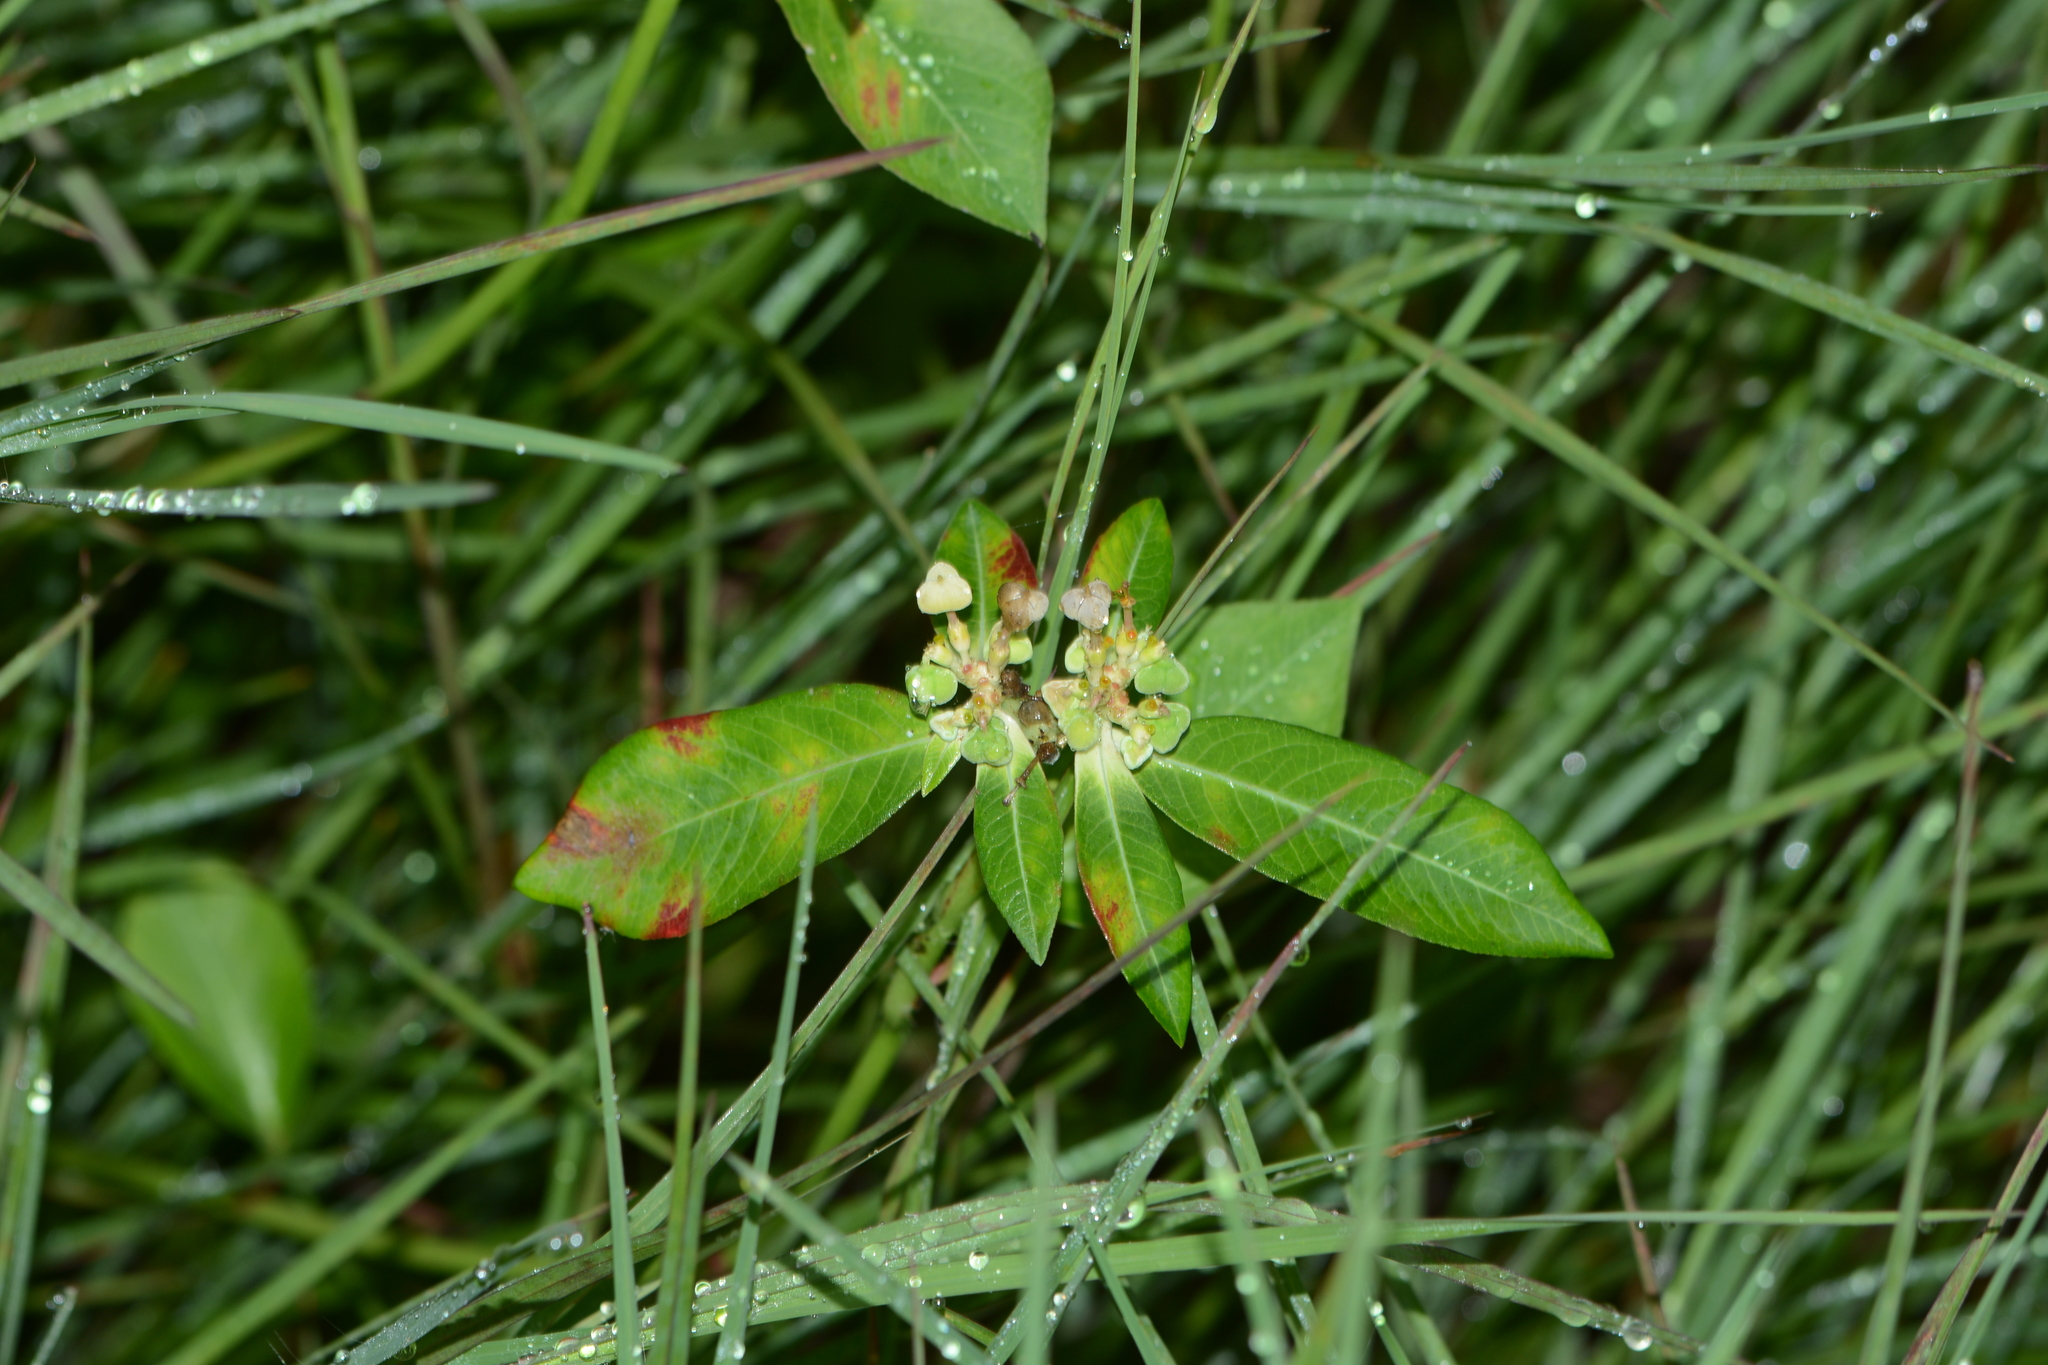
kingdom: Plantae
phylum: Tracheophyta
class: Magnoliopsida
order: Malpighiales
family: Euphorbiaceae
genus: Euphorbia
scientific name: Euphorbia heterophylla
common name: Mexican fireplant
